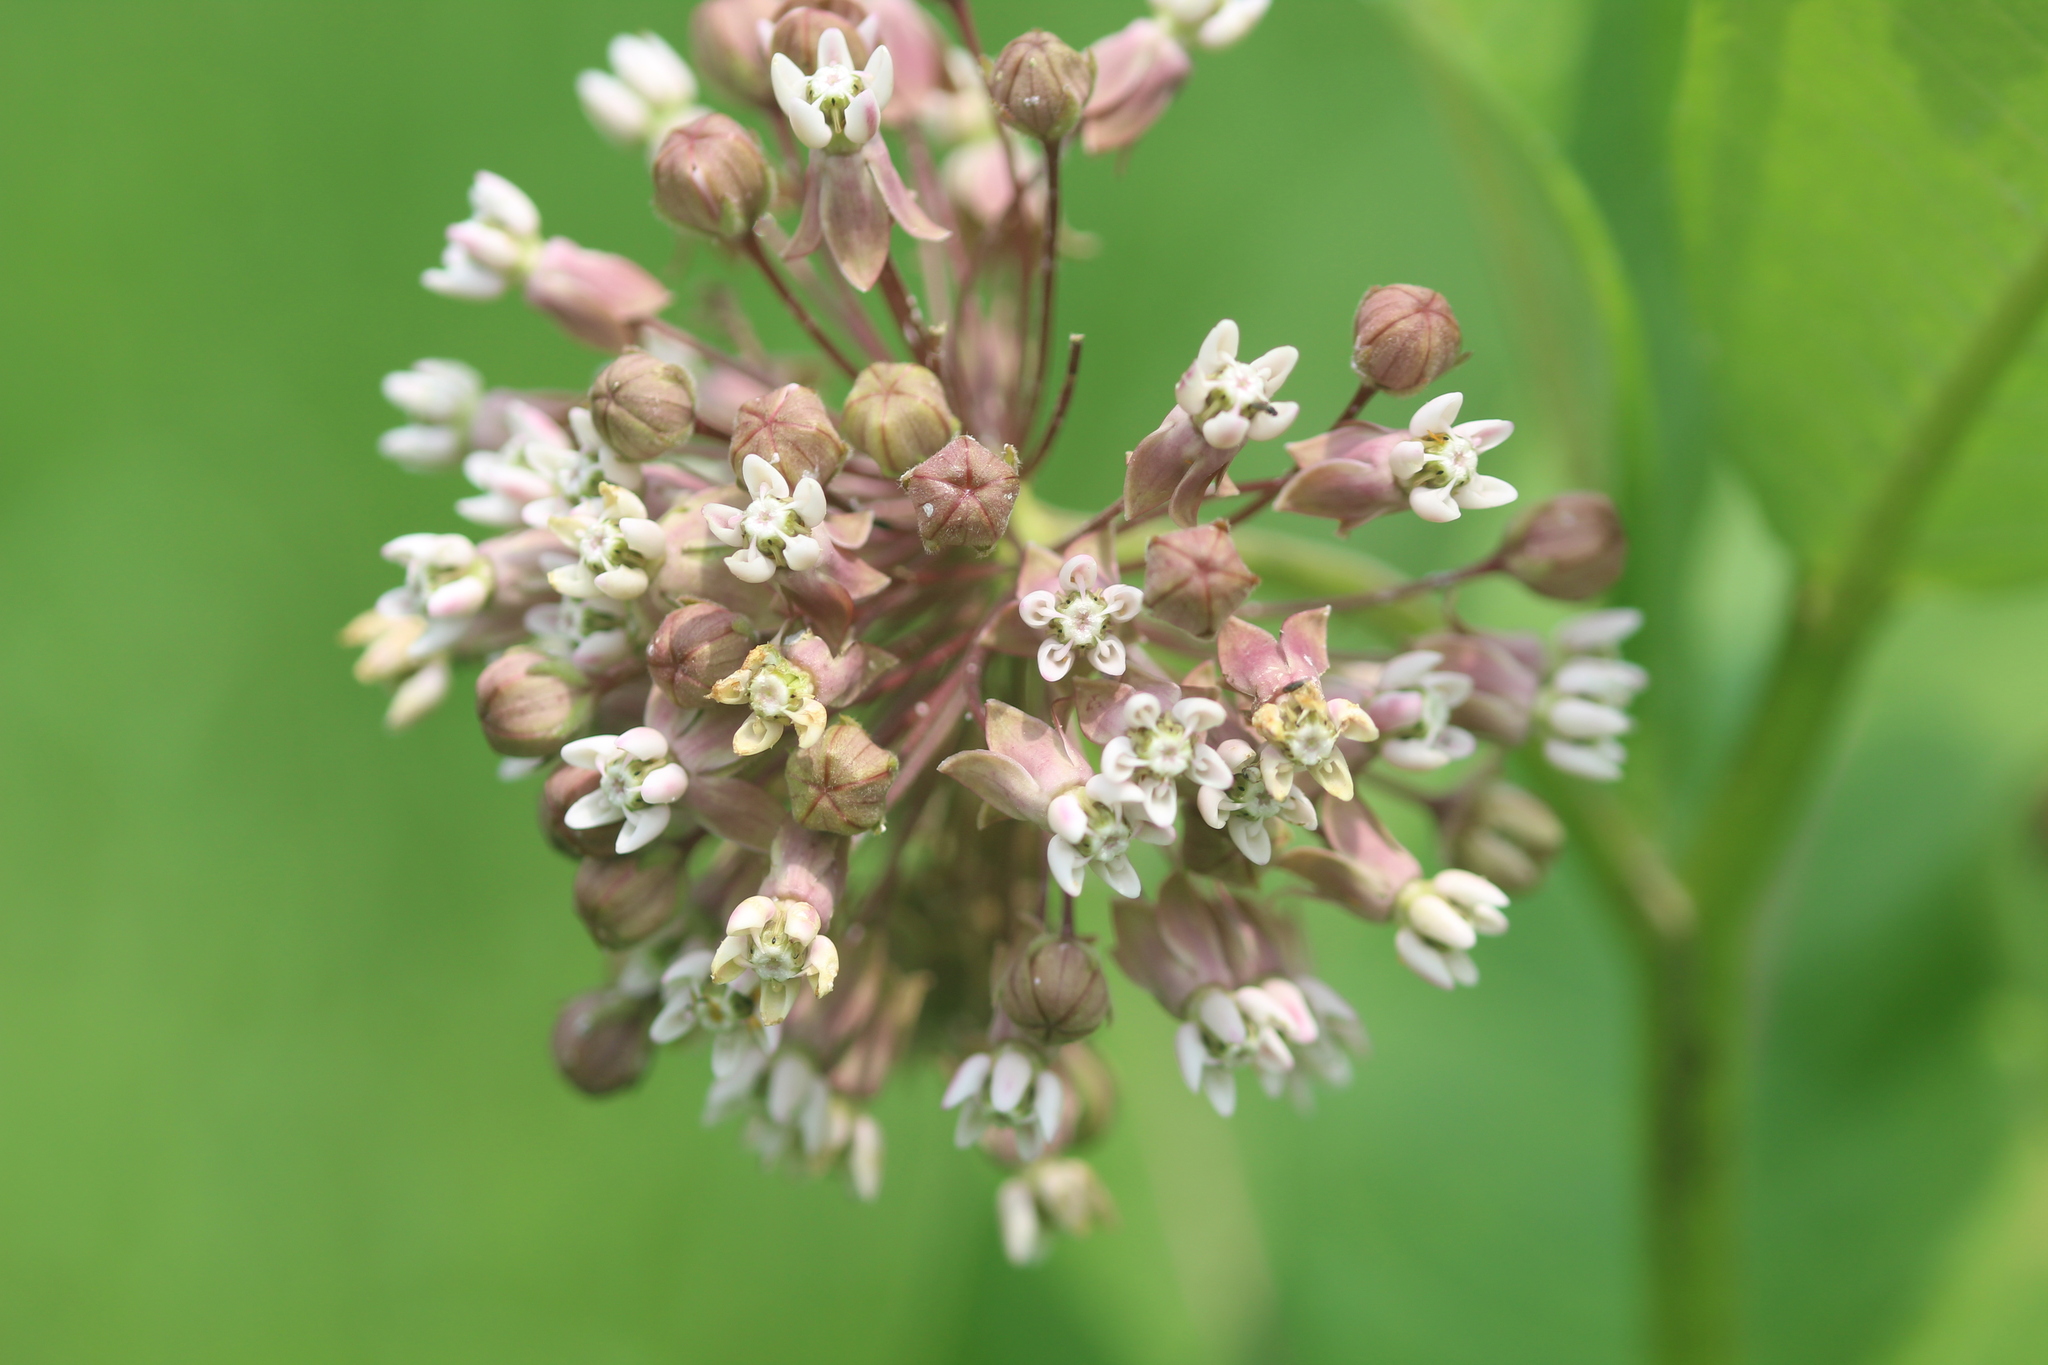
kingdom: Plantae
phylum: Tracheophyta
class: Magnoliopsida
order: Gentianales
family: Apocynaceae
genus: Asclepias
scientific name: Asclepias syriaca
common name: Common milkweed
